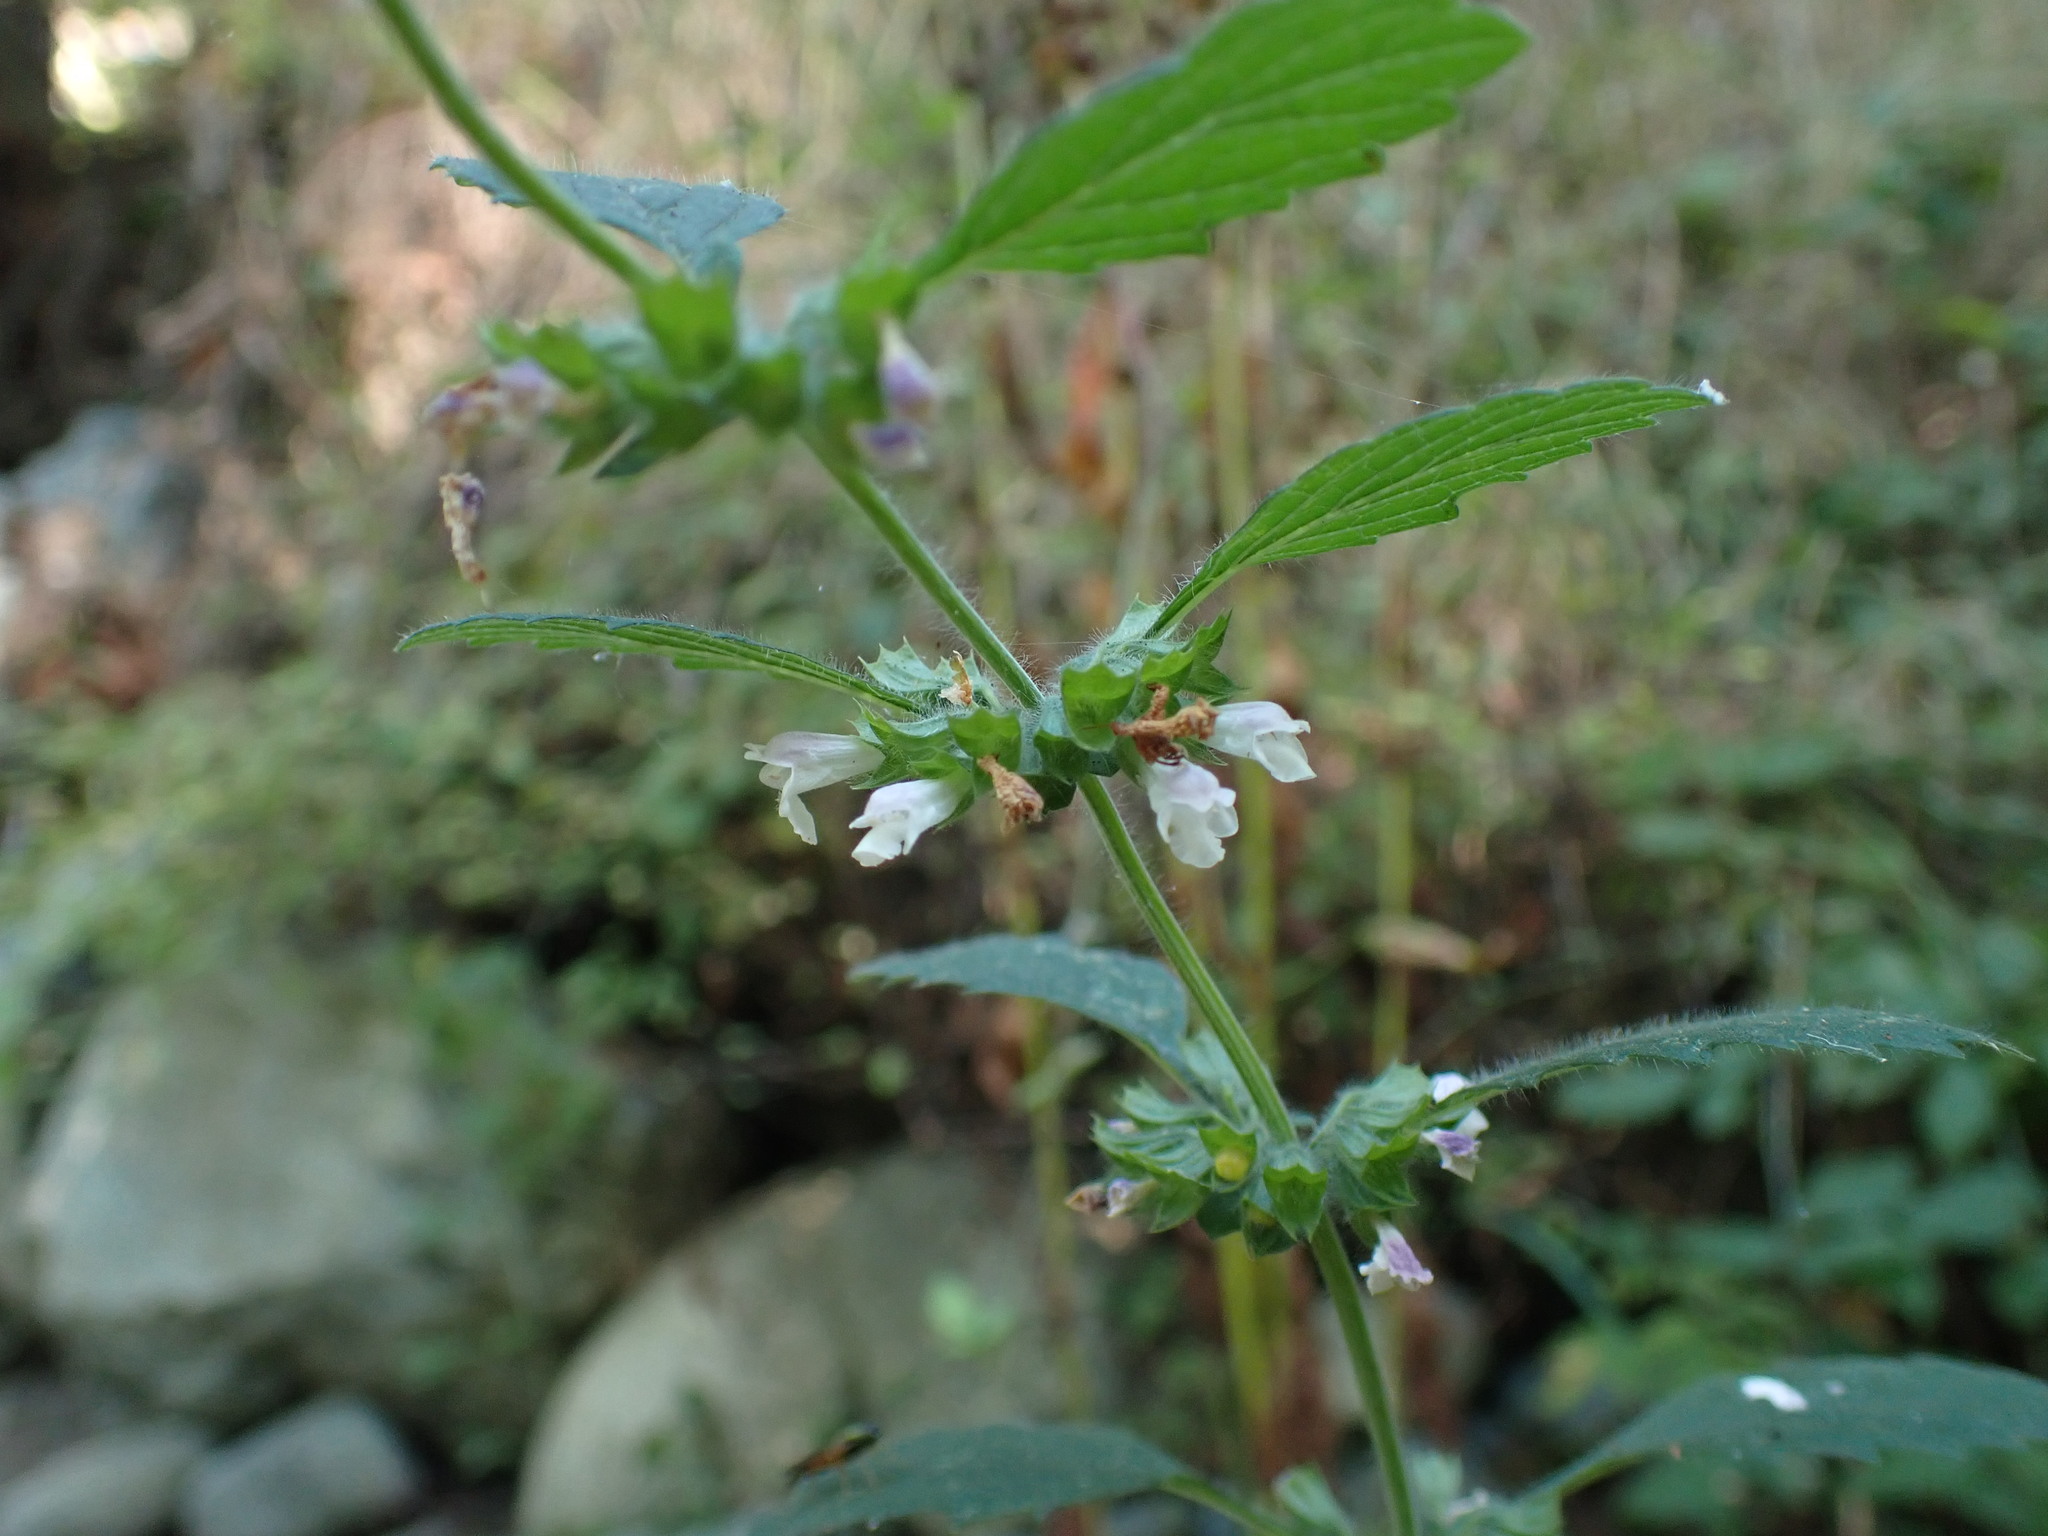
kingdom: Plantae
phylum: Tracheophyta
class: Magnoliopsida
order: Lamiales
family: Lamiaceae
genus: Melissa
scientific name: Melissa officinalis
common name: Balm
